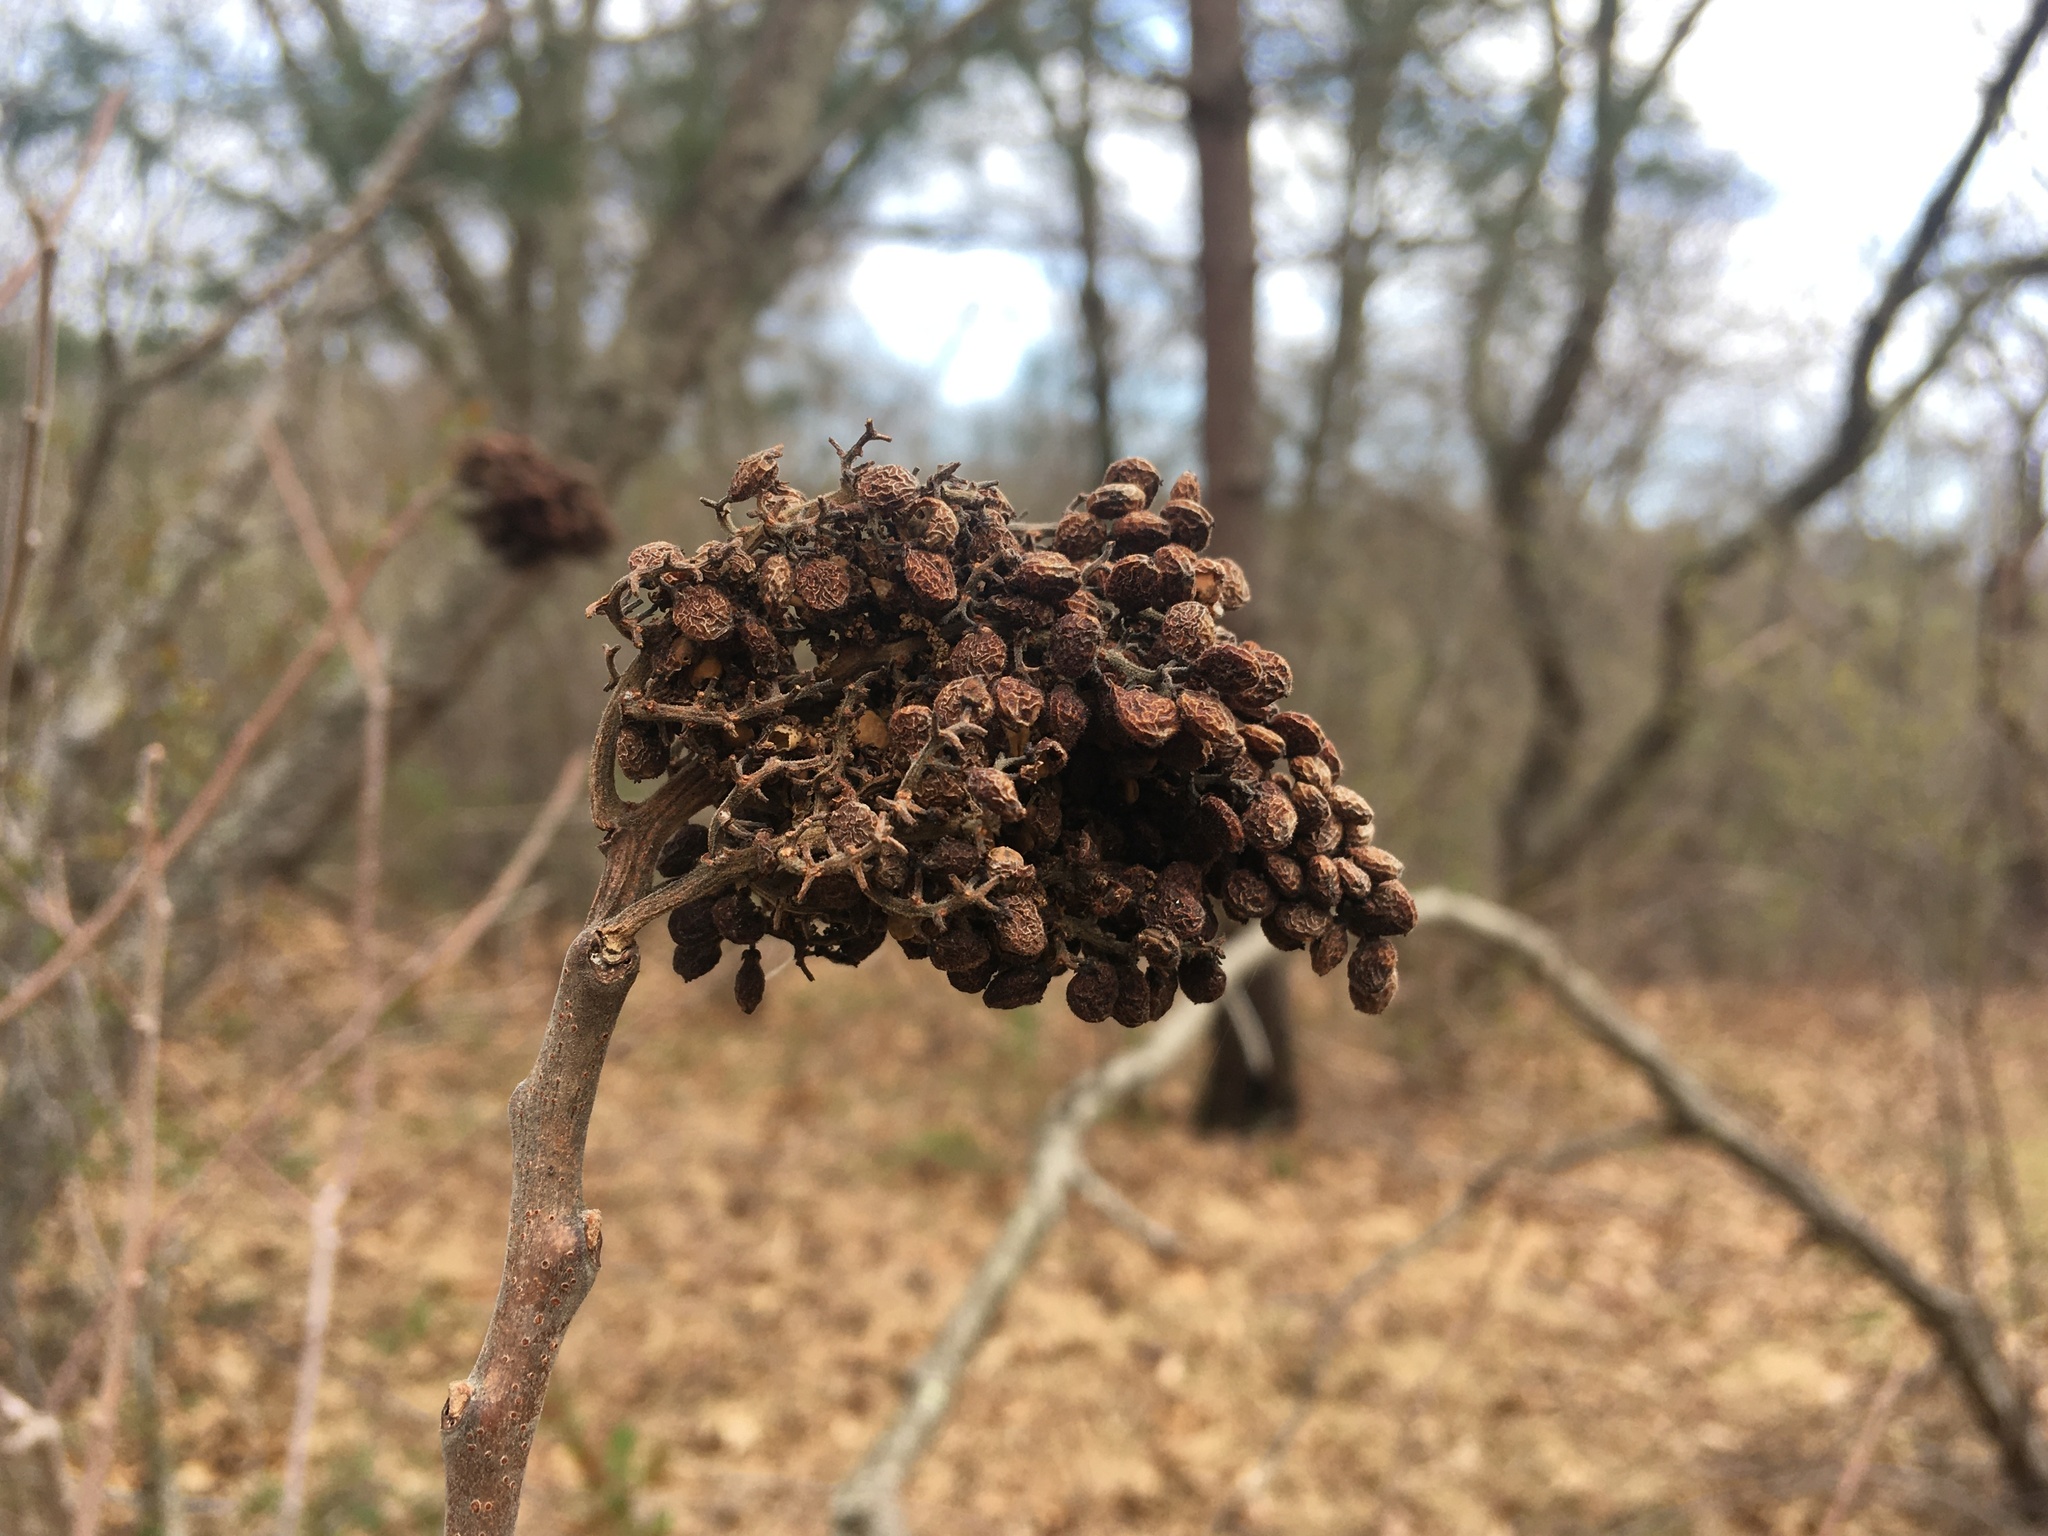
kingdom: Plantae
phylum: Tracheophyta
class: Magnoliopsida
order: Sapindales
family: Anacardiaceae
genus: Rhus
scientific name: Rhus copallina
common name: Shining sumac
